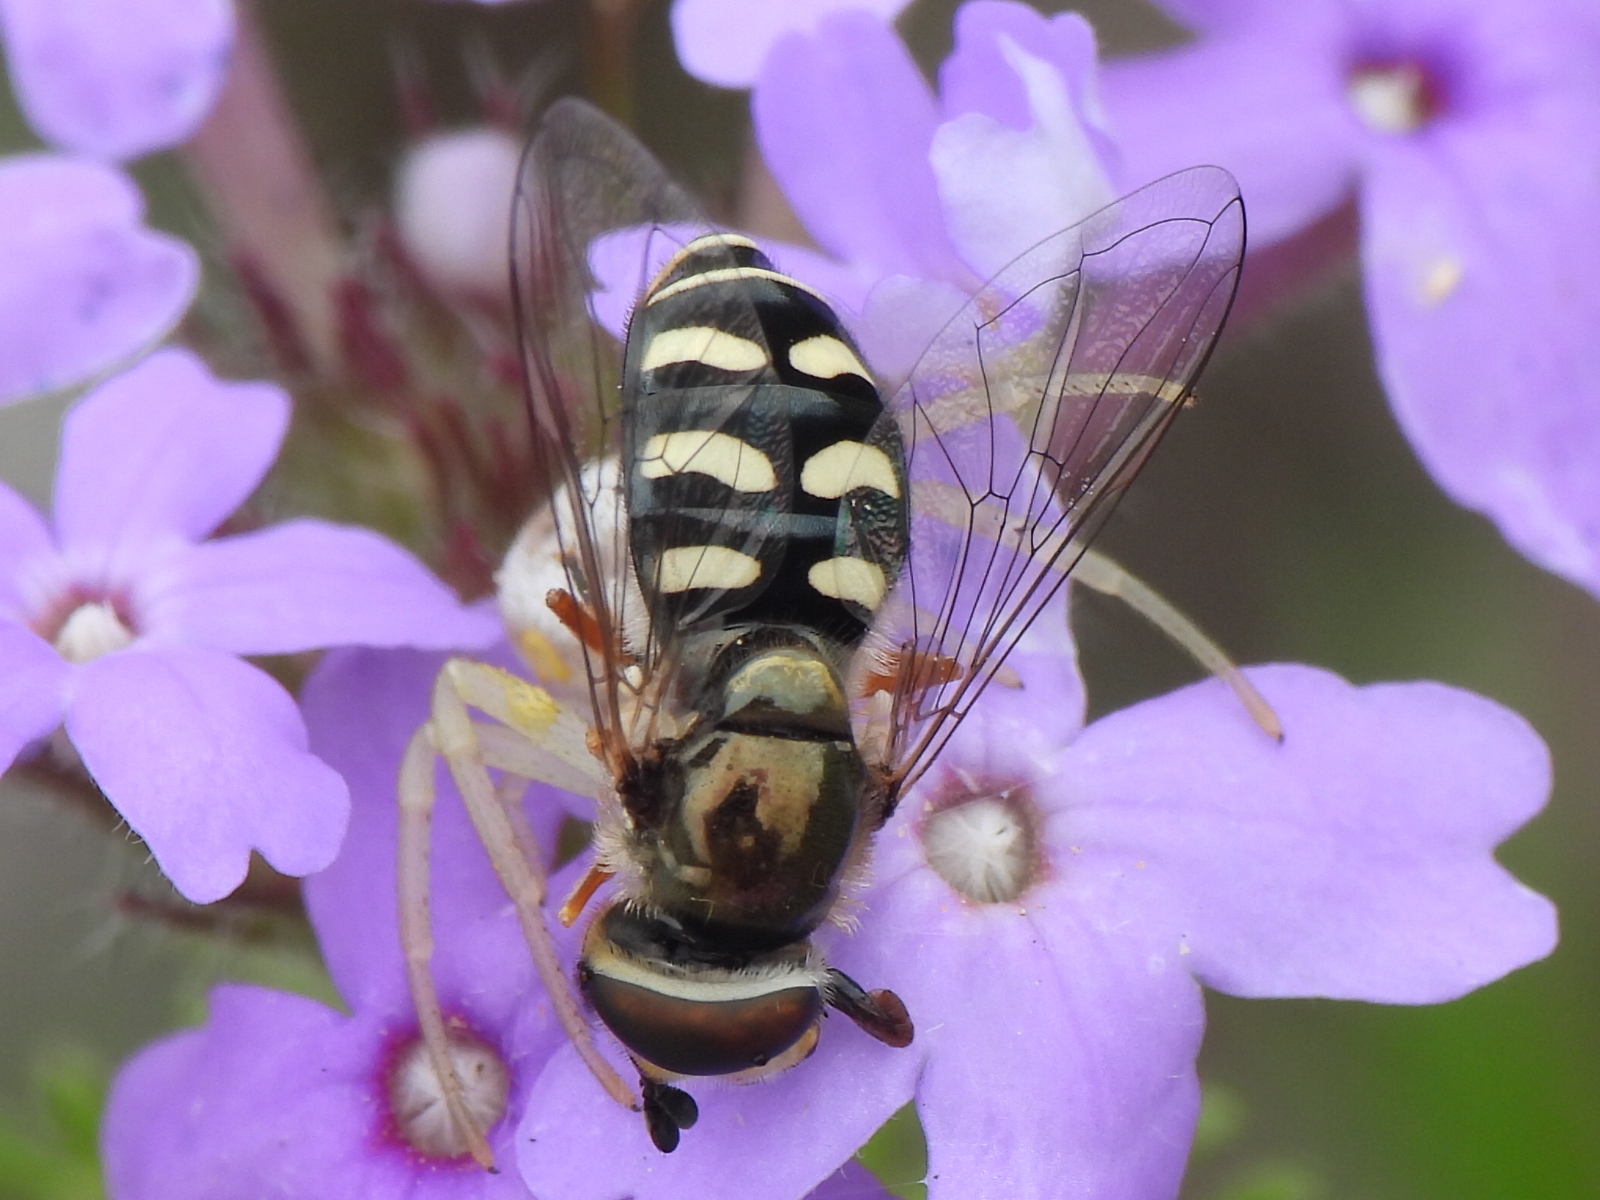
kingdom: Animalia
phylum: Arthropoda
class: Insecta
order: Diptera
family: Syrphidae
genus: Eupeodes
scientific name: Eupeodes volucris
